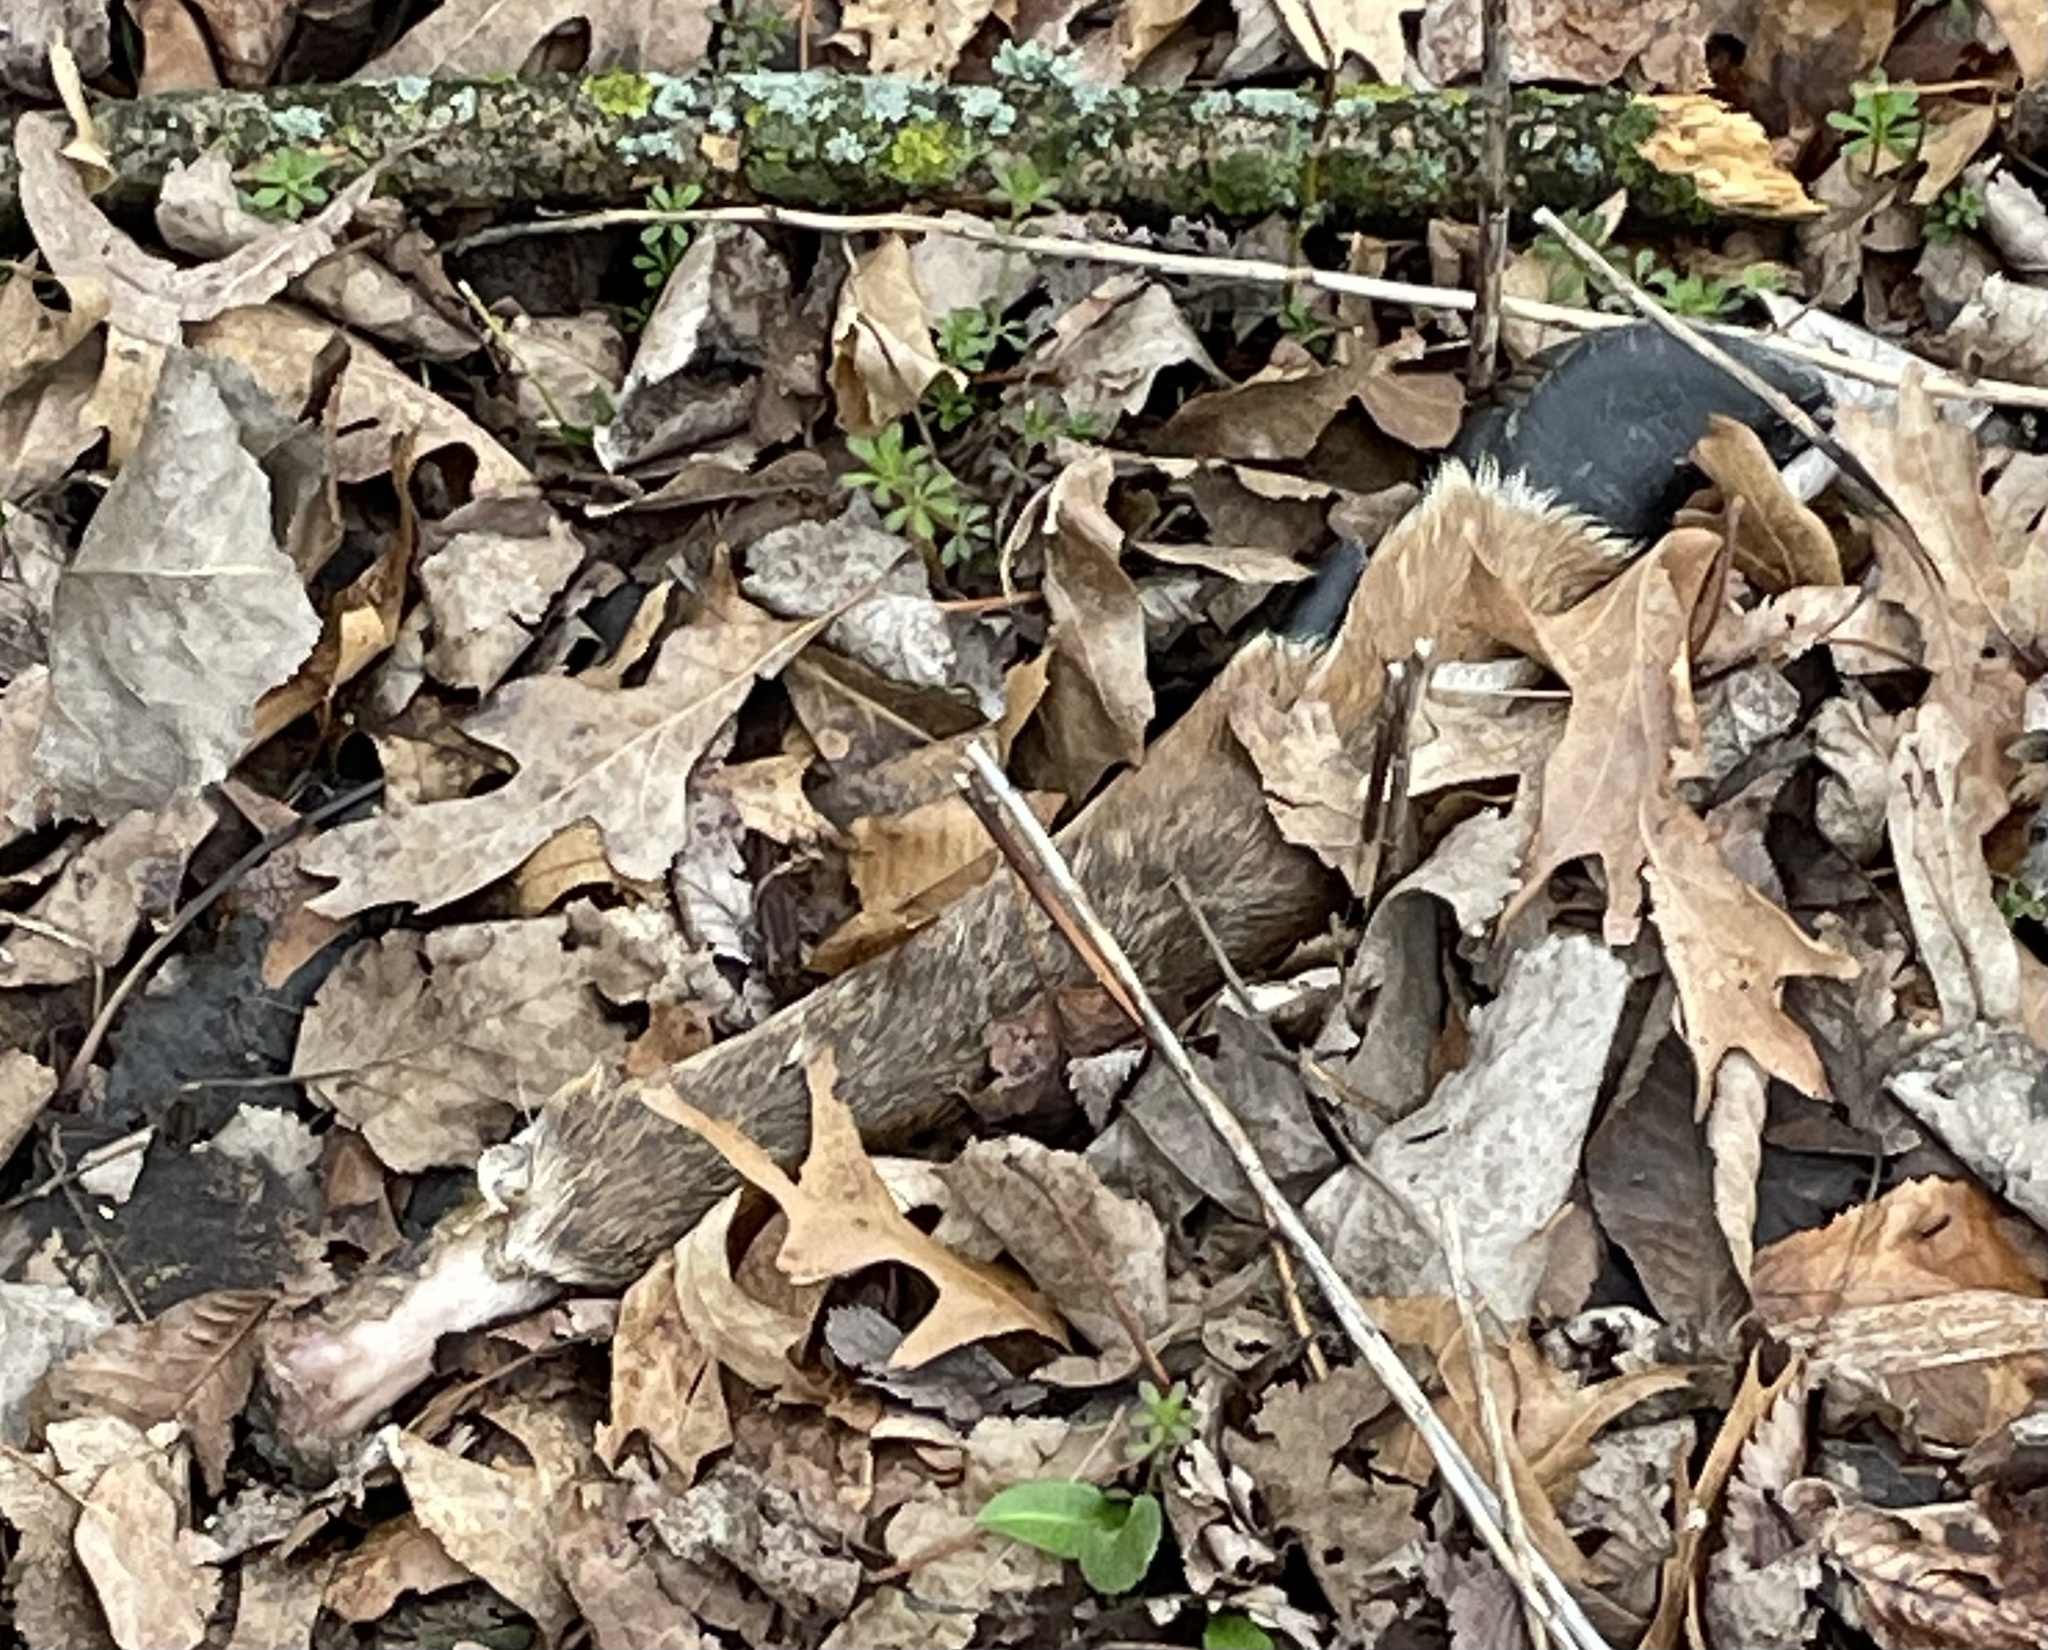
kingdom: Animalia
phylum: Chordata
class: Mammalia
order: Artiodactyla
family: Cervidae
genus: Odocoileus
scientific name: Odocoileus virginianus
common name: White-tailed deer
